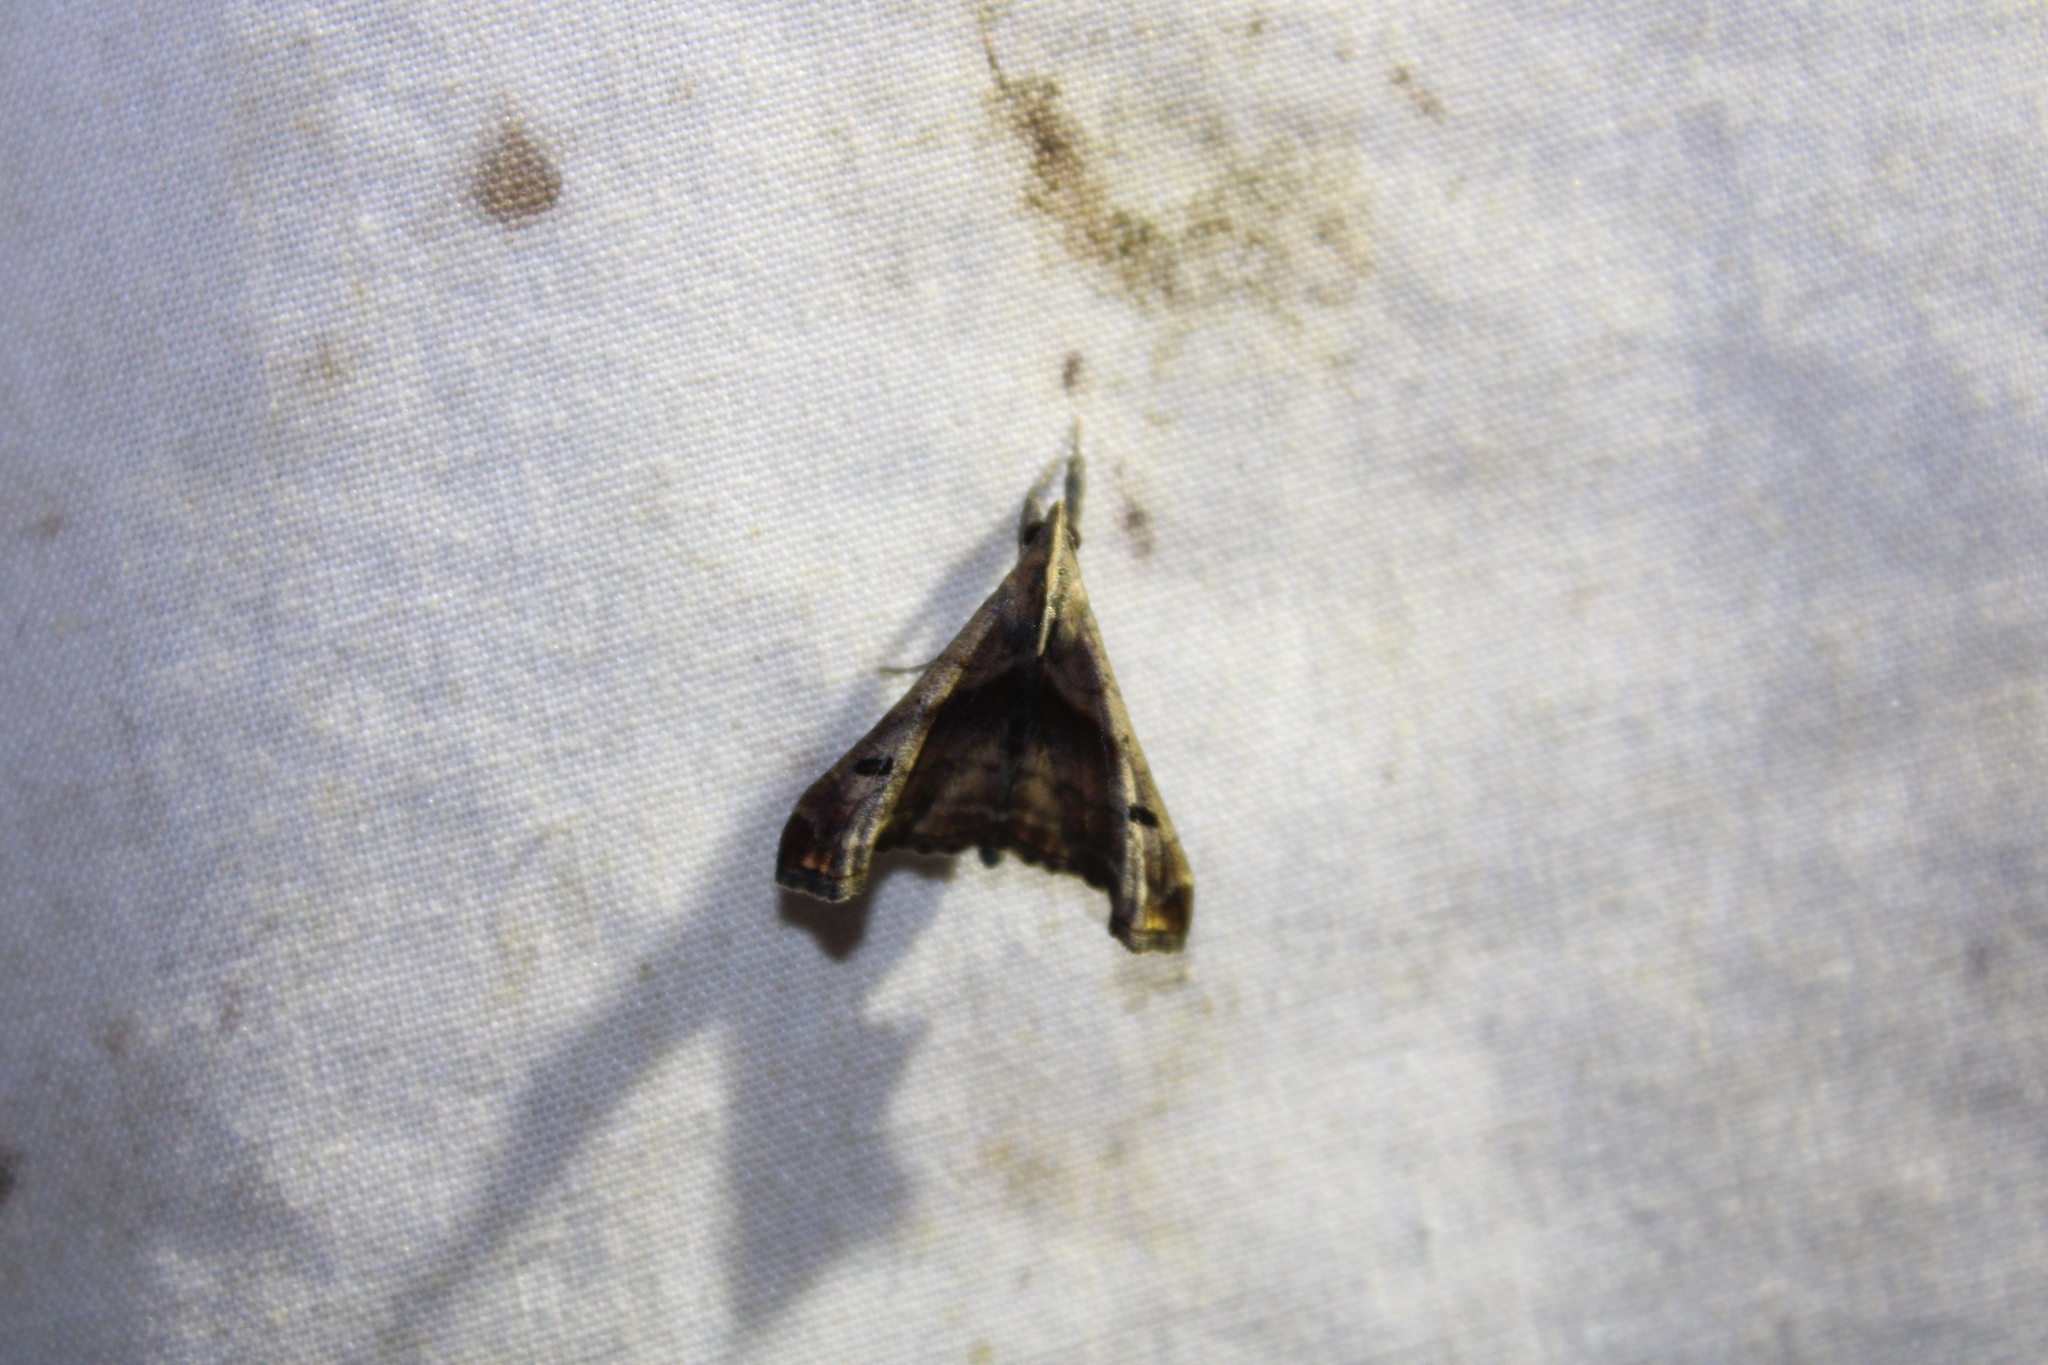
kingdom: Animalia
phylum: Arthropoda
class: Insecta
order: Lepidoptera
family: Erebidae
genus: Palthis
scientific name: Palthis angulalis
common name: Dark-spotted palthis moth
